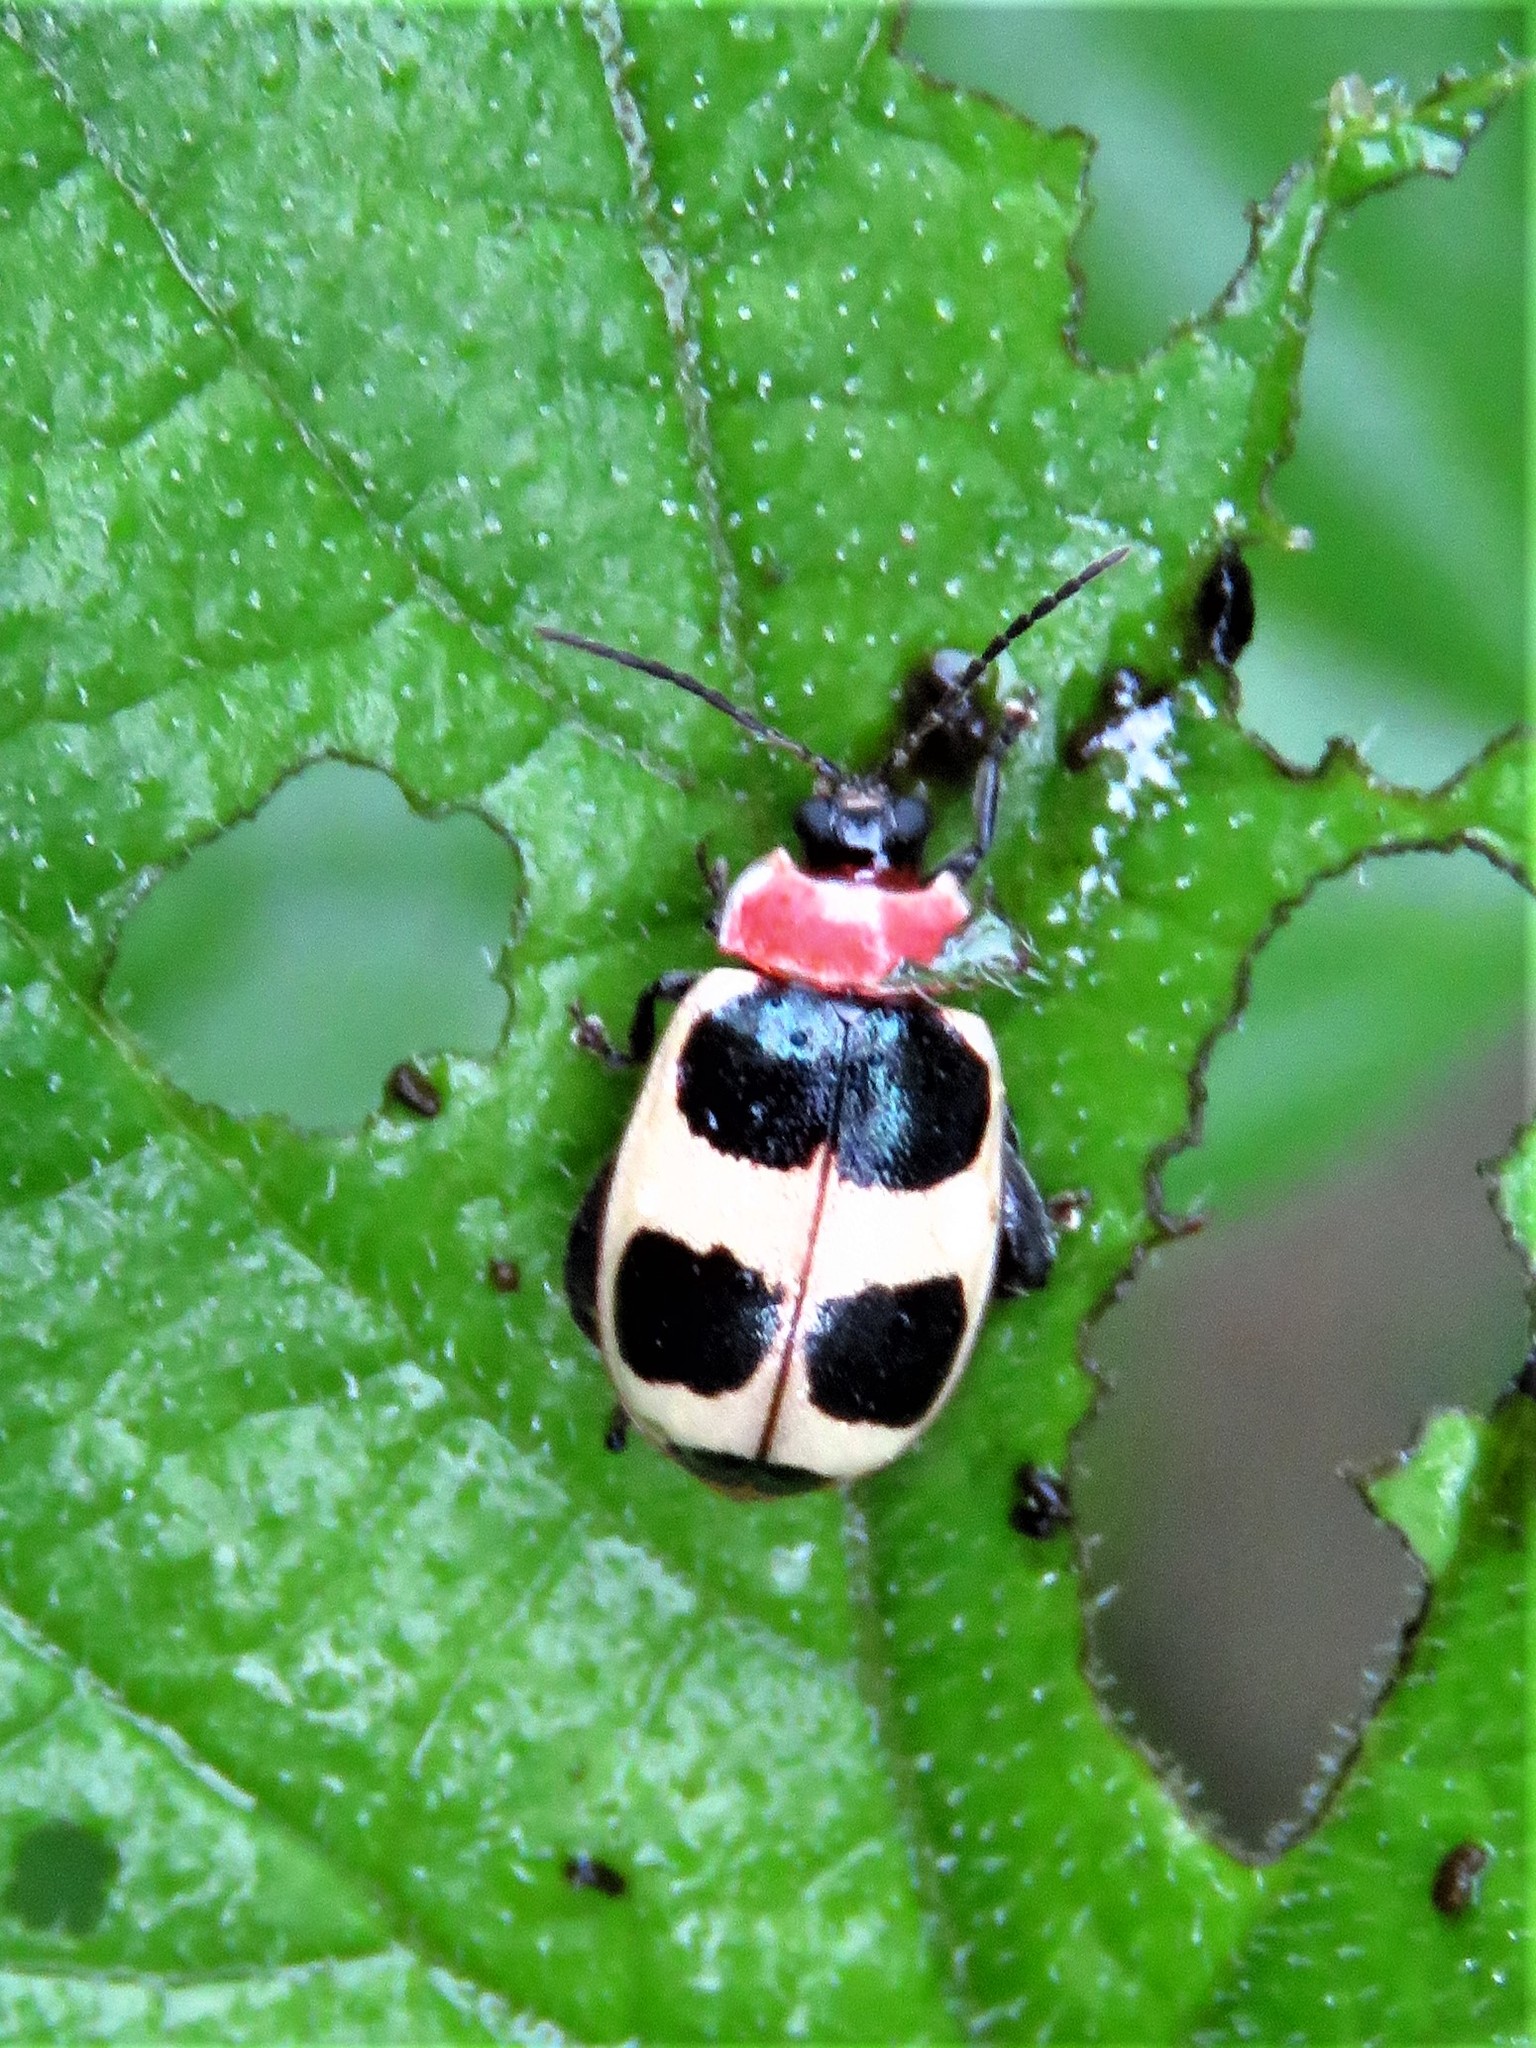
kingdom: Animalia
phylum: Arthropoda
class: Insecta
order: Coleoptera
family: Chrysomelidae
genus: Alagoasa
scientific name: Alagoasa
